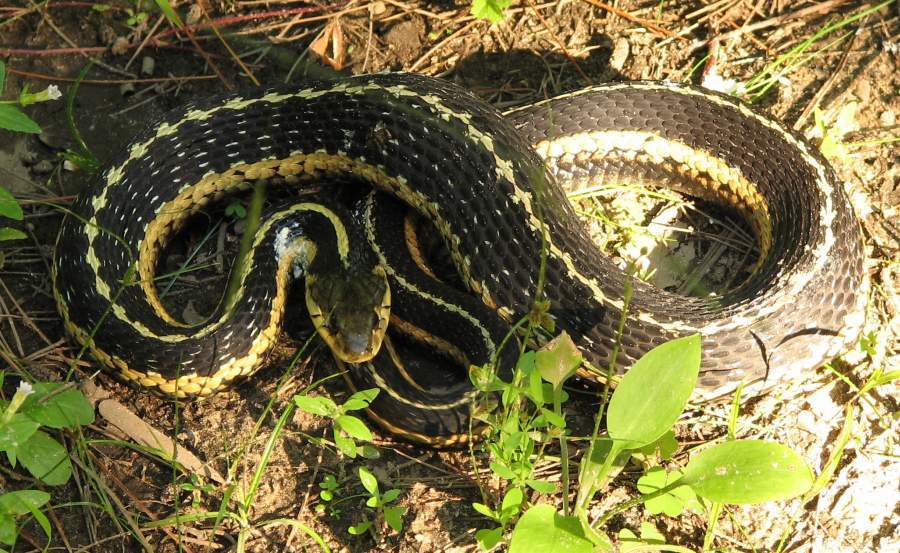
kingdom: Animalia
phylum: Chordata
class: Squamata
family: Colubridae
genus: Thamnophis
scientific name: Thamnophis sirtalis
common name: Common garter snake
